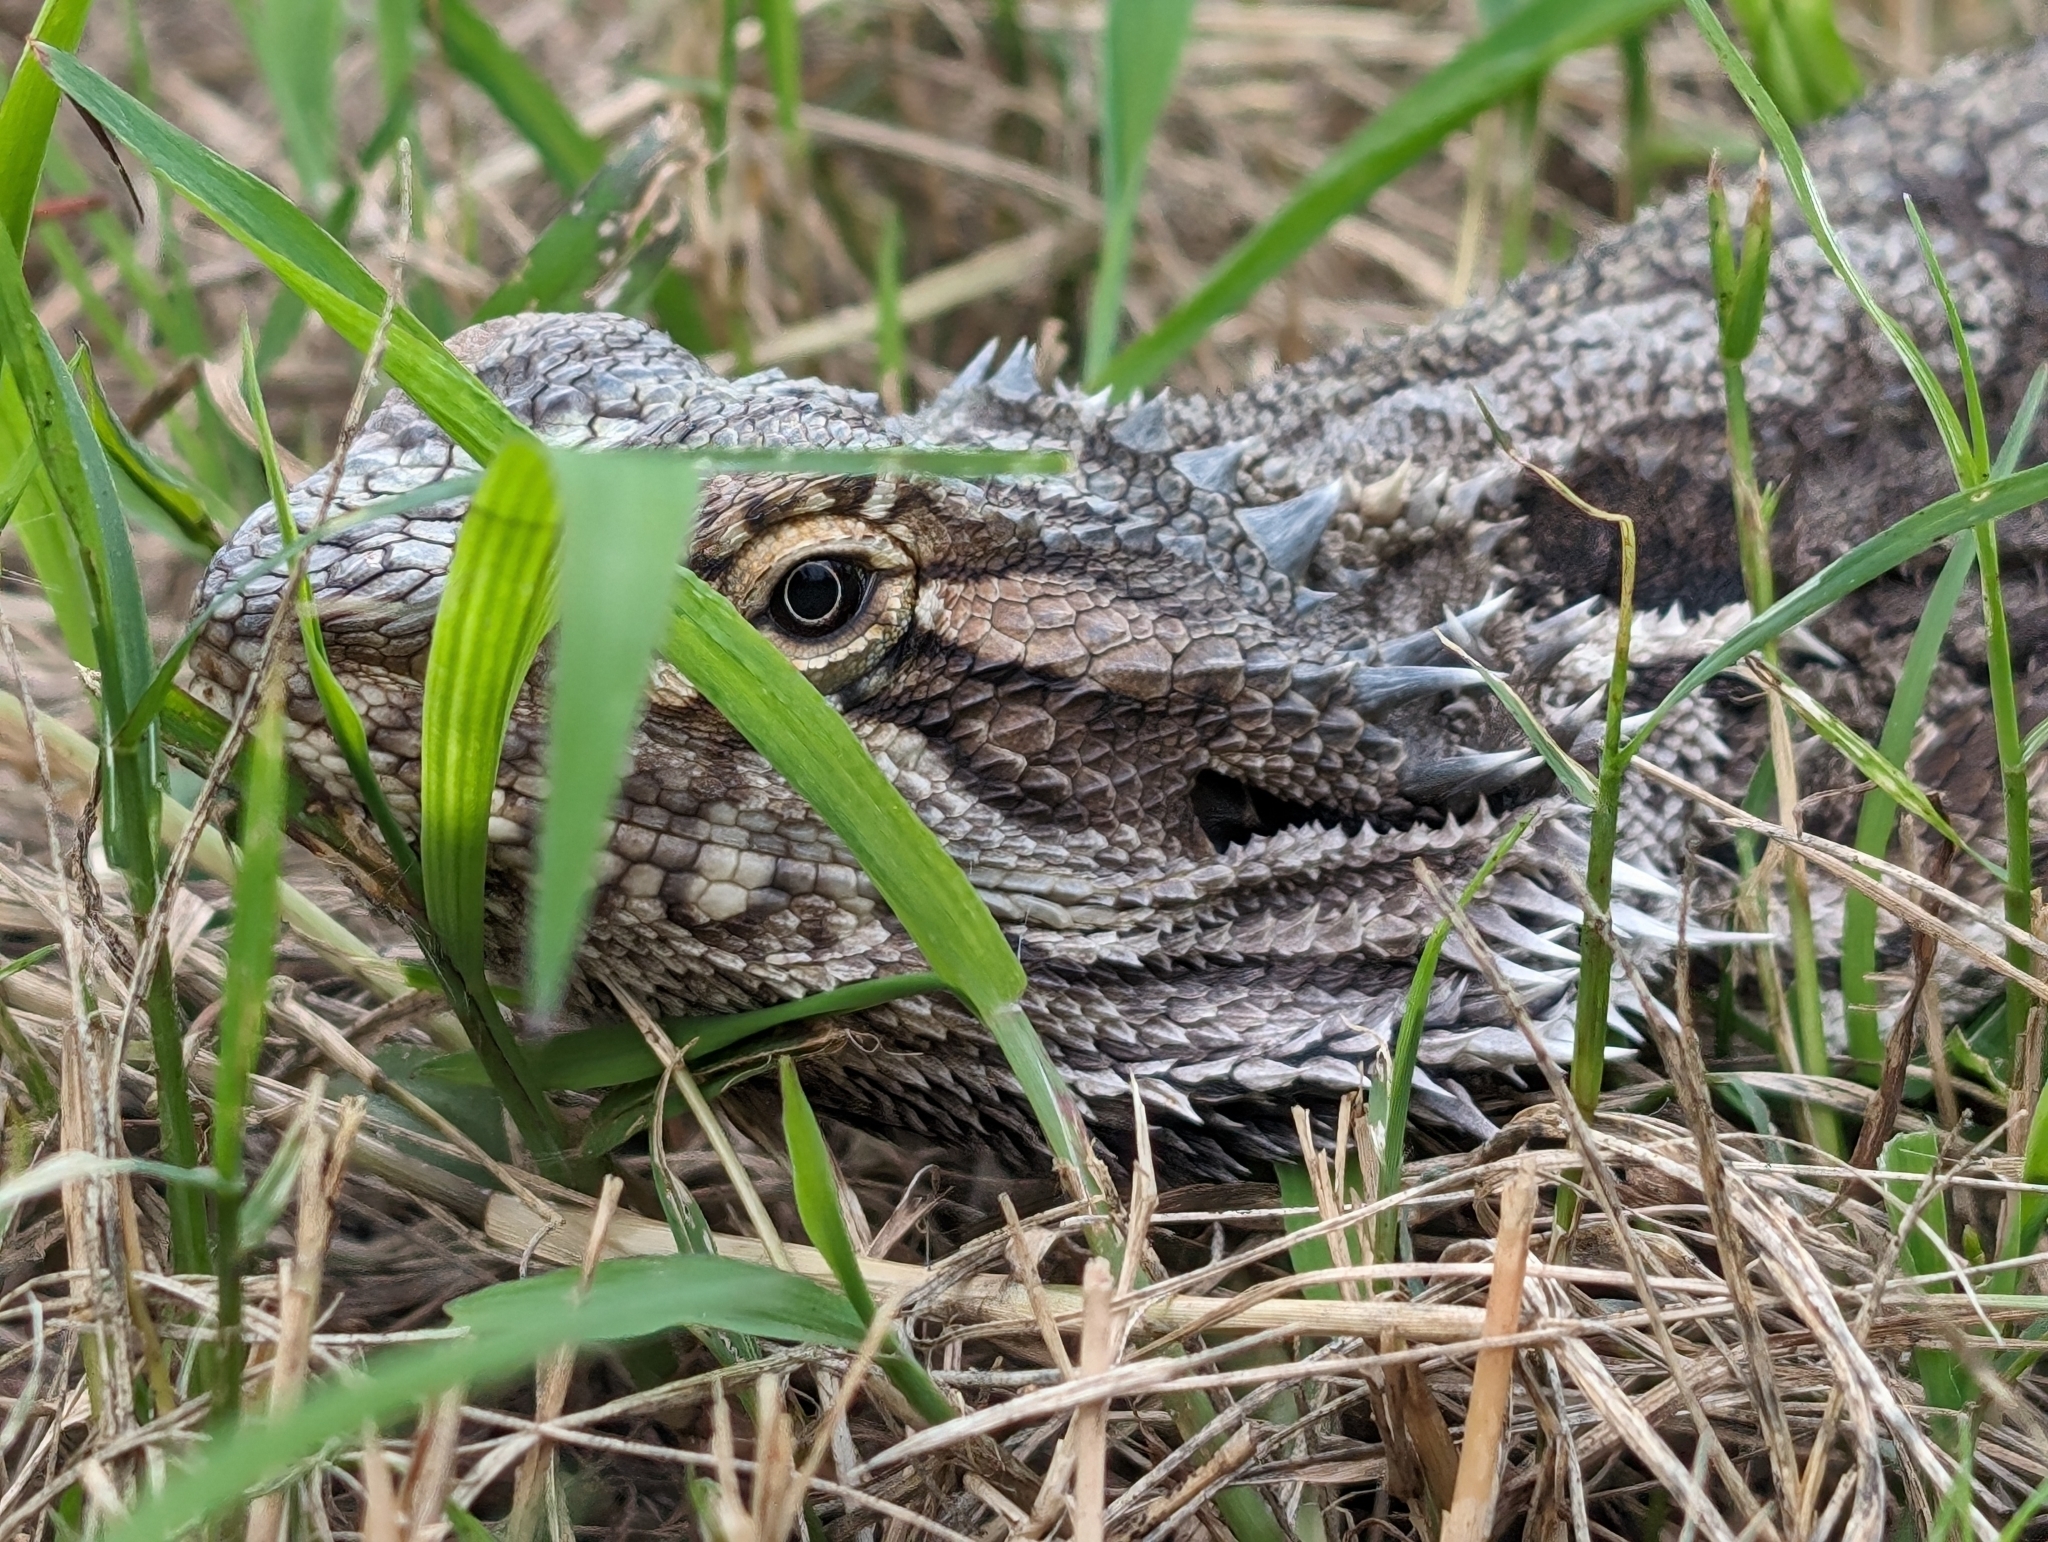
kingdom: Animalia
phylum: Chordata
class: Squamata
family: Agamidae
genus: Pogona
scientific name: Pogona barbata
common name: Bearded dragon
